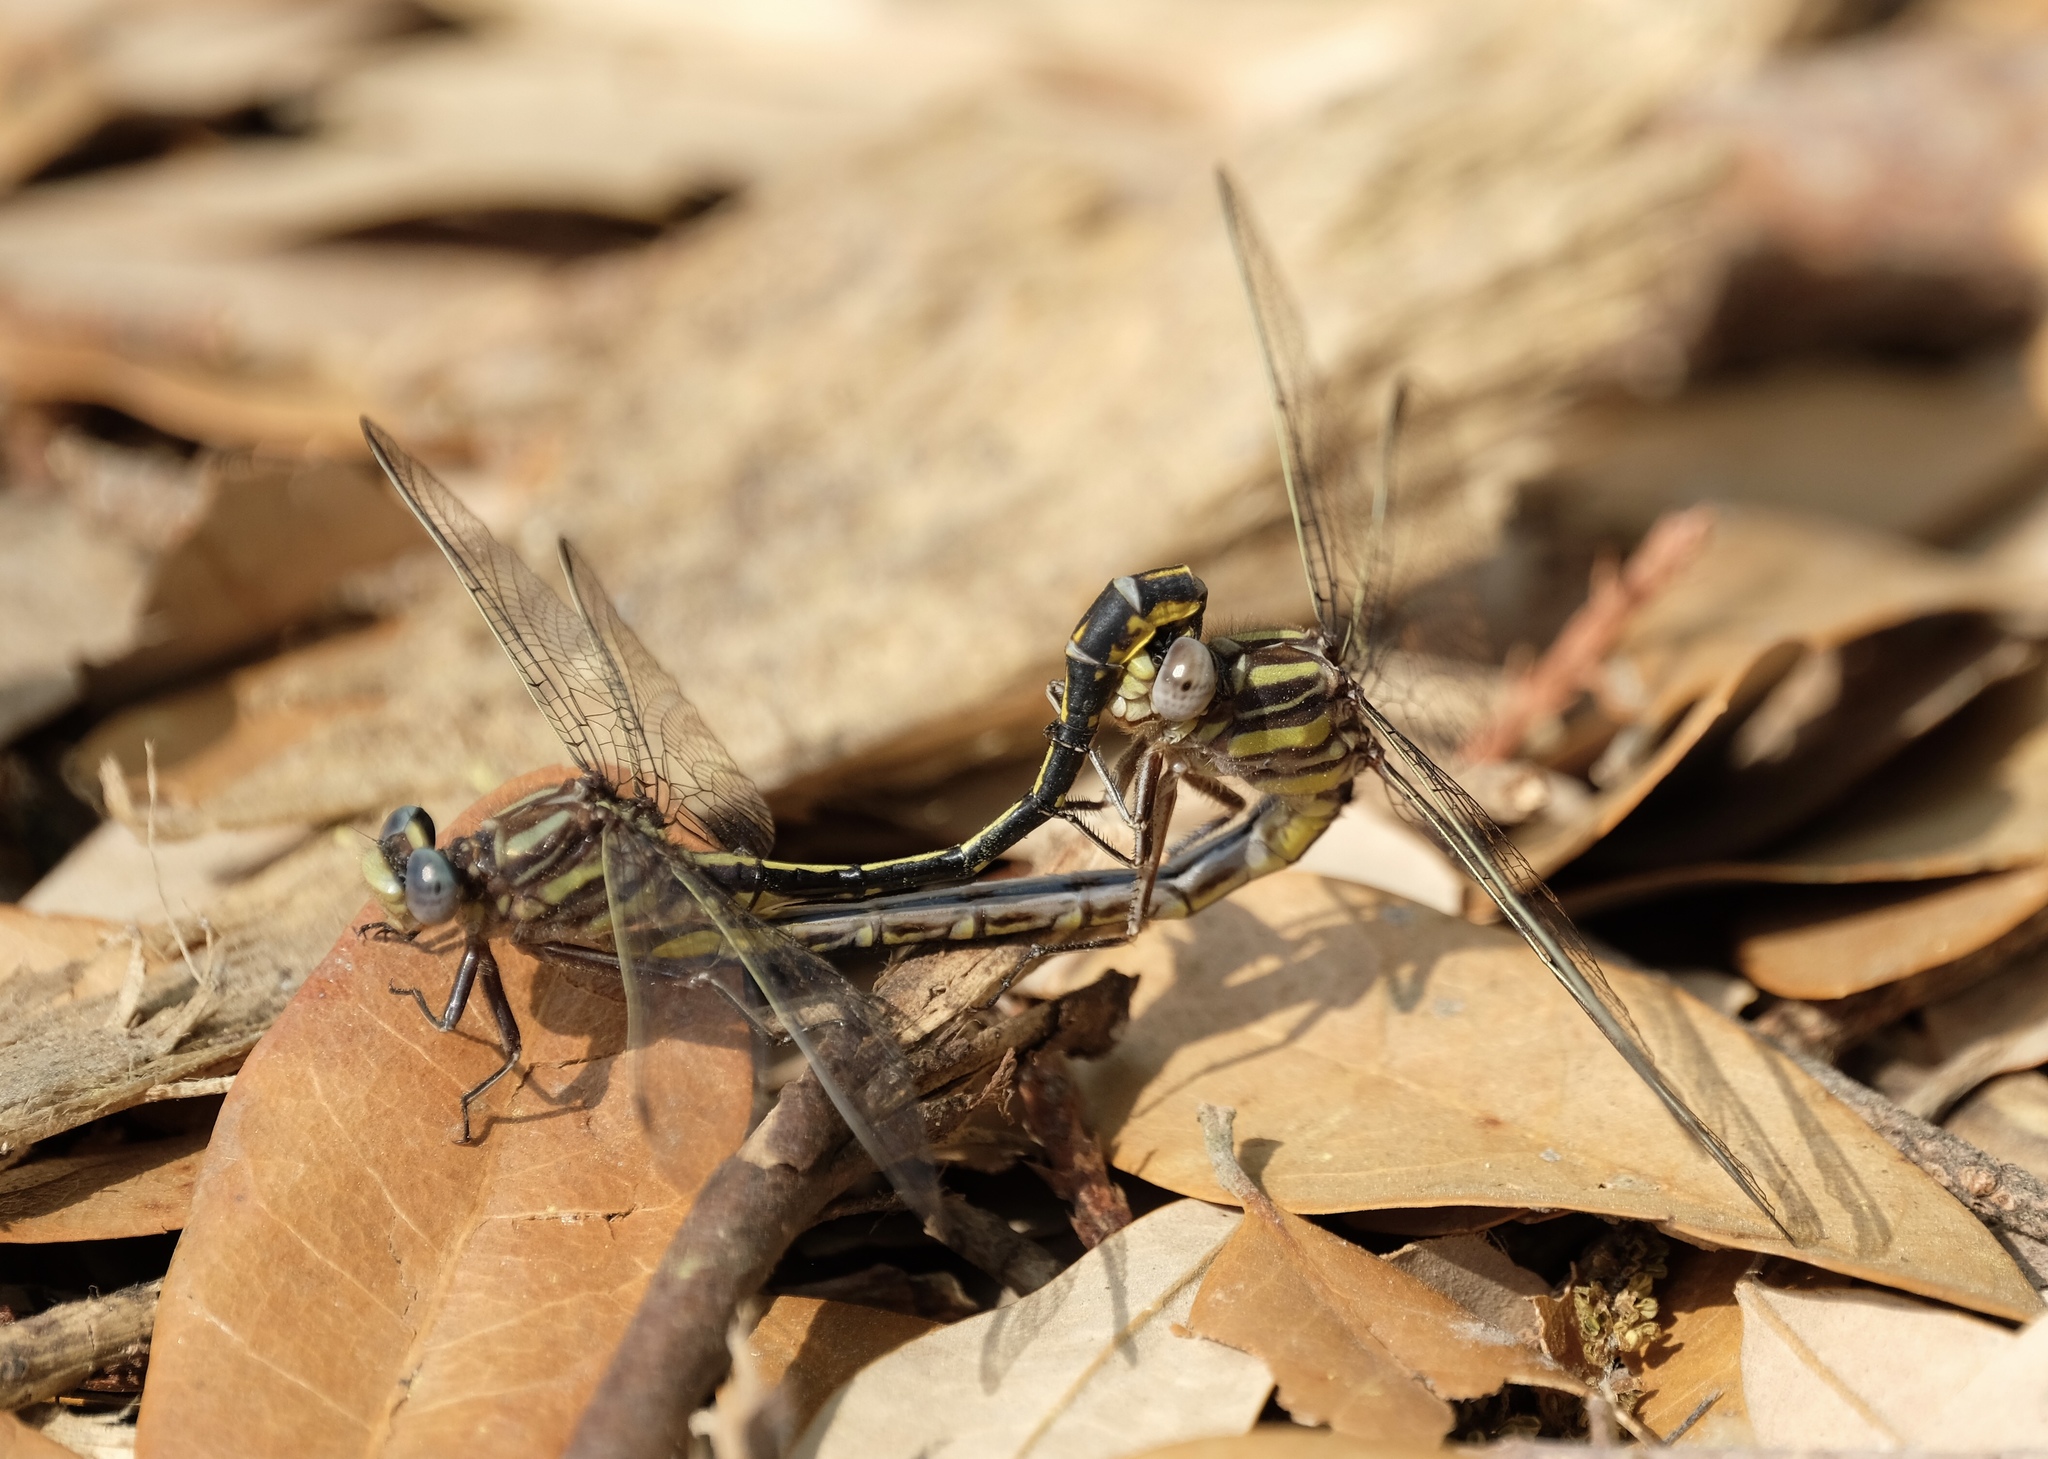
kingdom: Animalia
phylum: Arthropoda
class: Insecta
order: Odonata
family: Gomphidae
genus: Phanogomphus
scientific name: Phanogomphus oklahomensis
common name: Oklahoma clubtail
